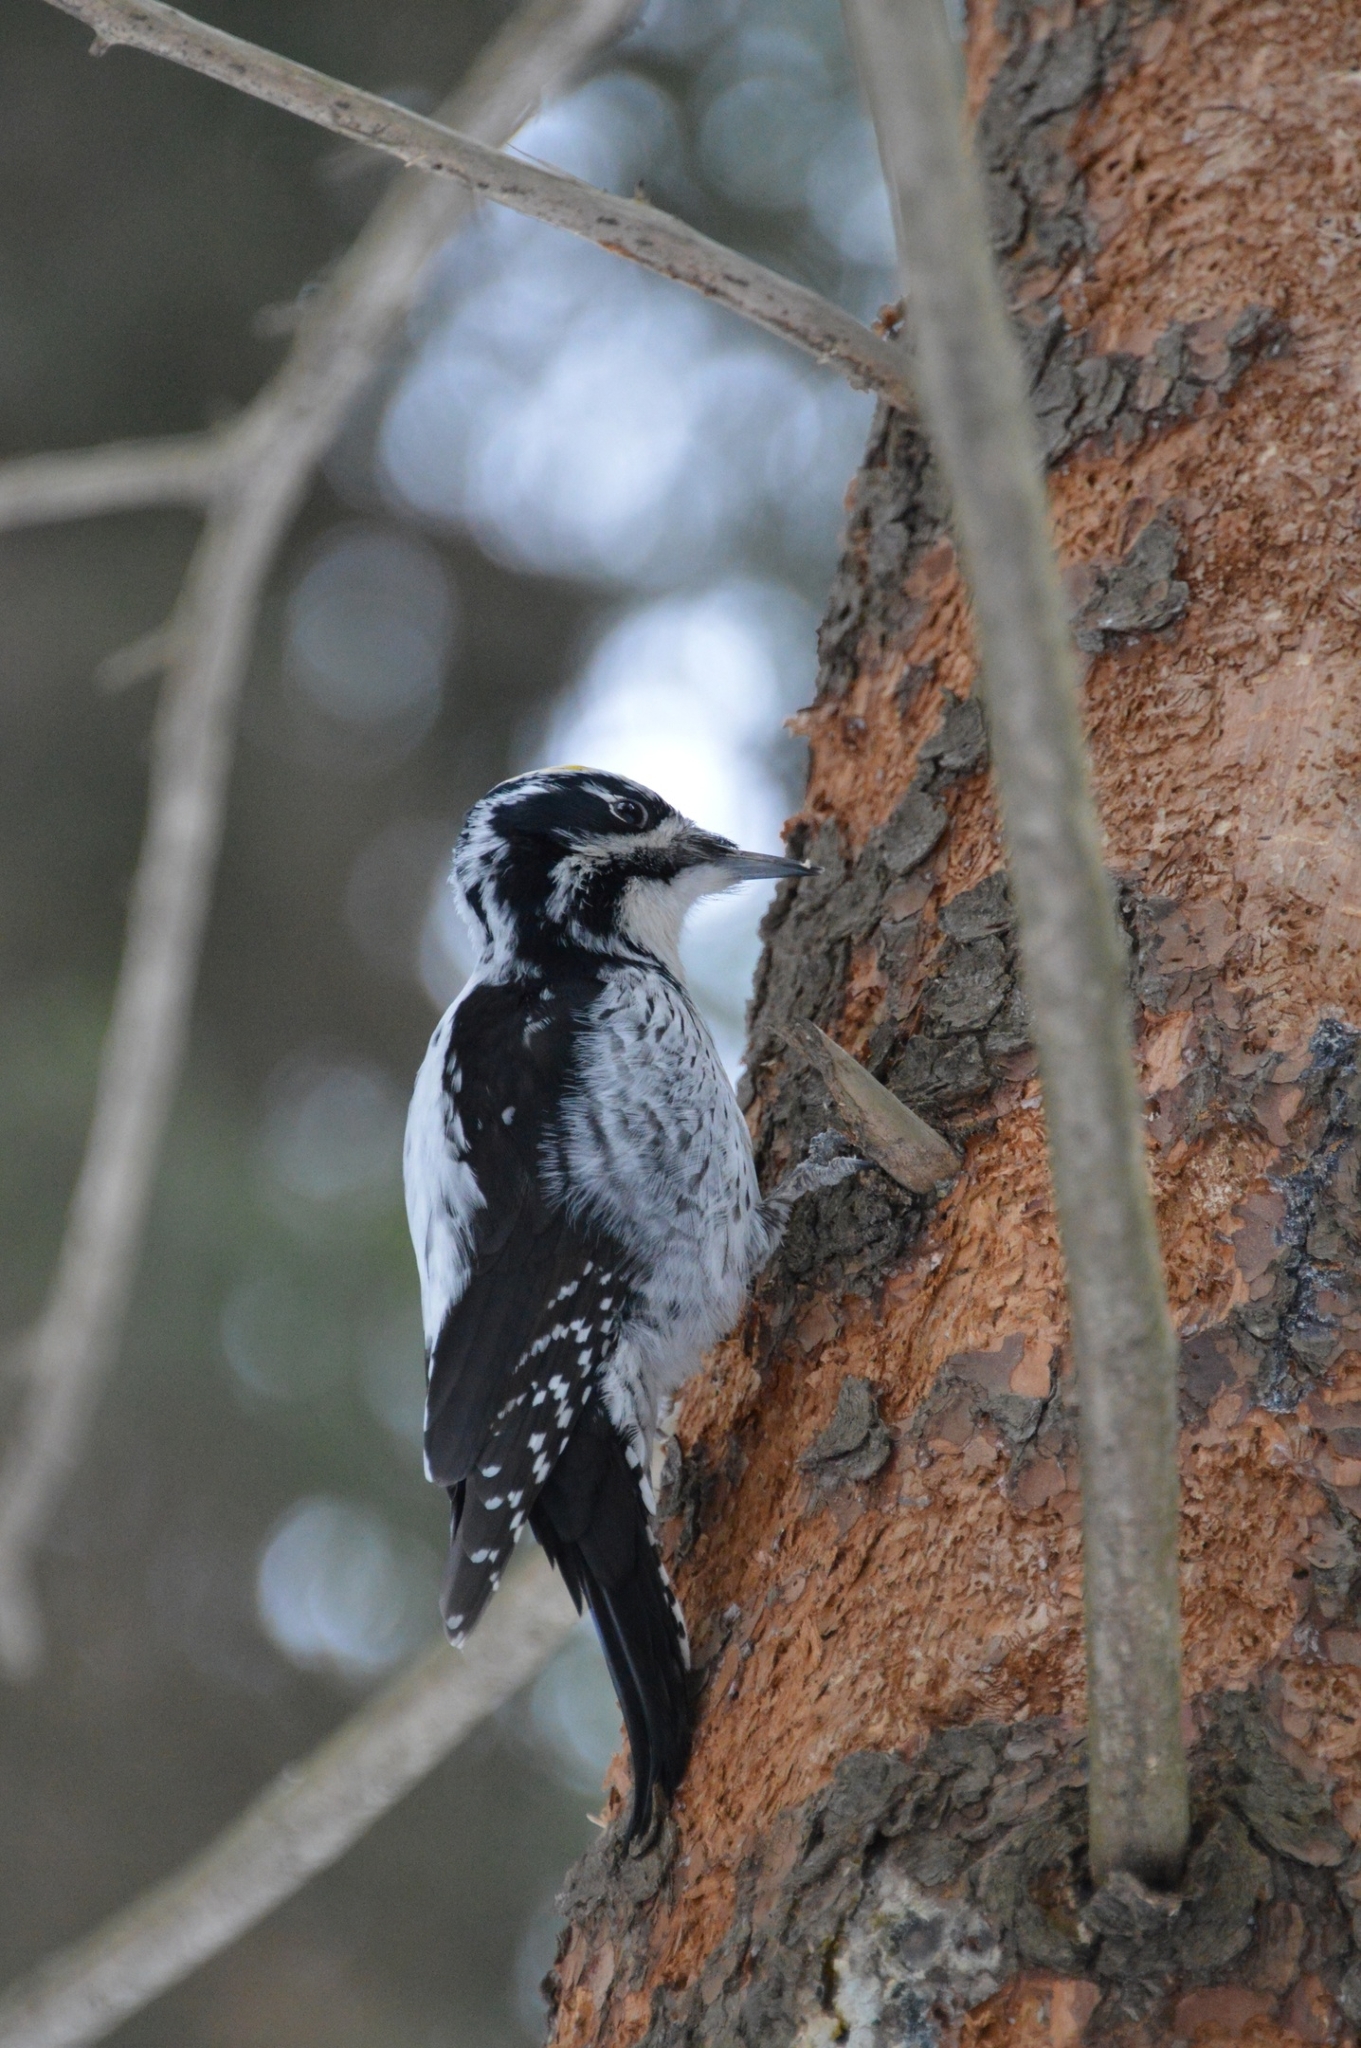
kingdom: Animalia
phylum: Chordata
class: Aves
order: Piciformes
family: Picidae
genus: Picoides
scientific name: Picoides tridactylus
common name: Eurasian three-toed woodpecker
